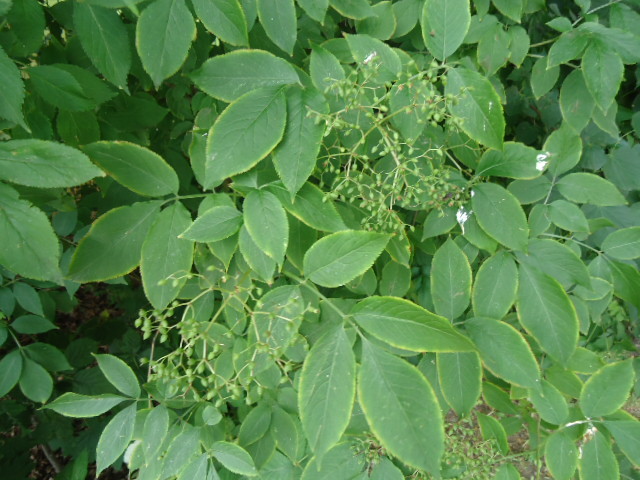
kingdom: Plantae
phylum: Tracheophyta
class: Magnoliopsida
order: Dipsacales
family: Viburnaceae
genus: Sambucus
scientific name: Sambucus nigra
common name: Elder
